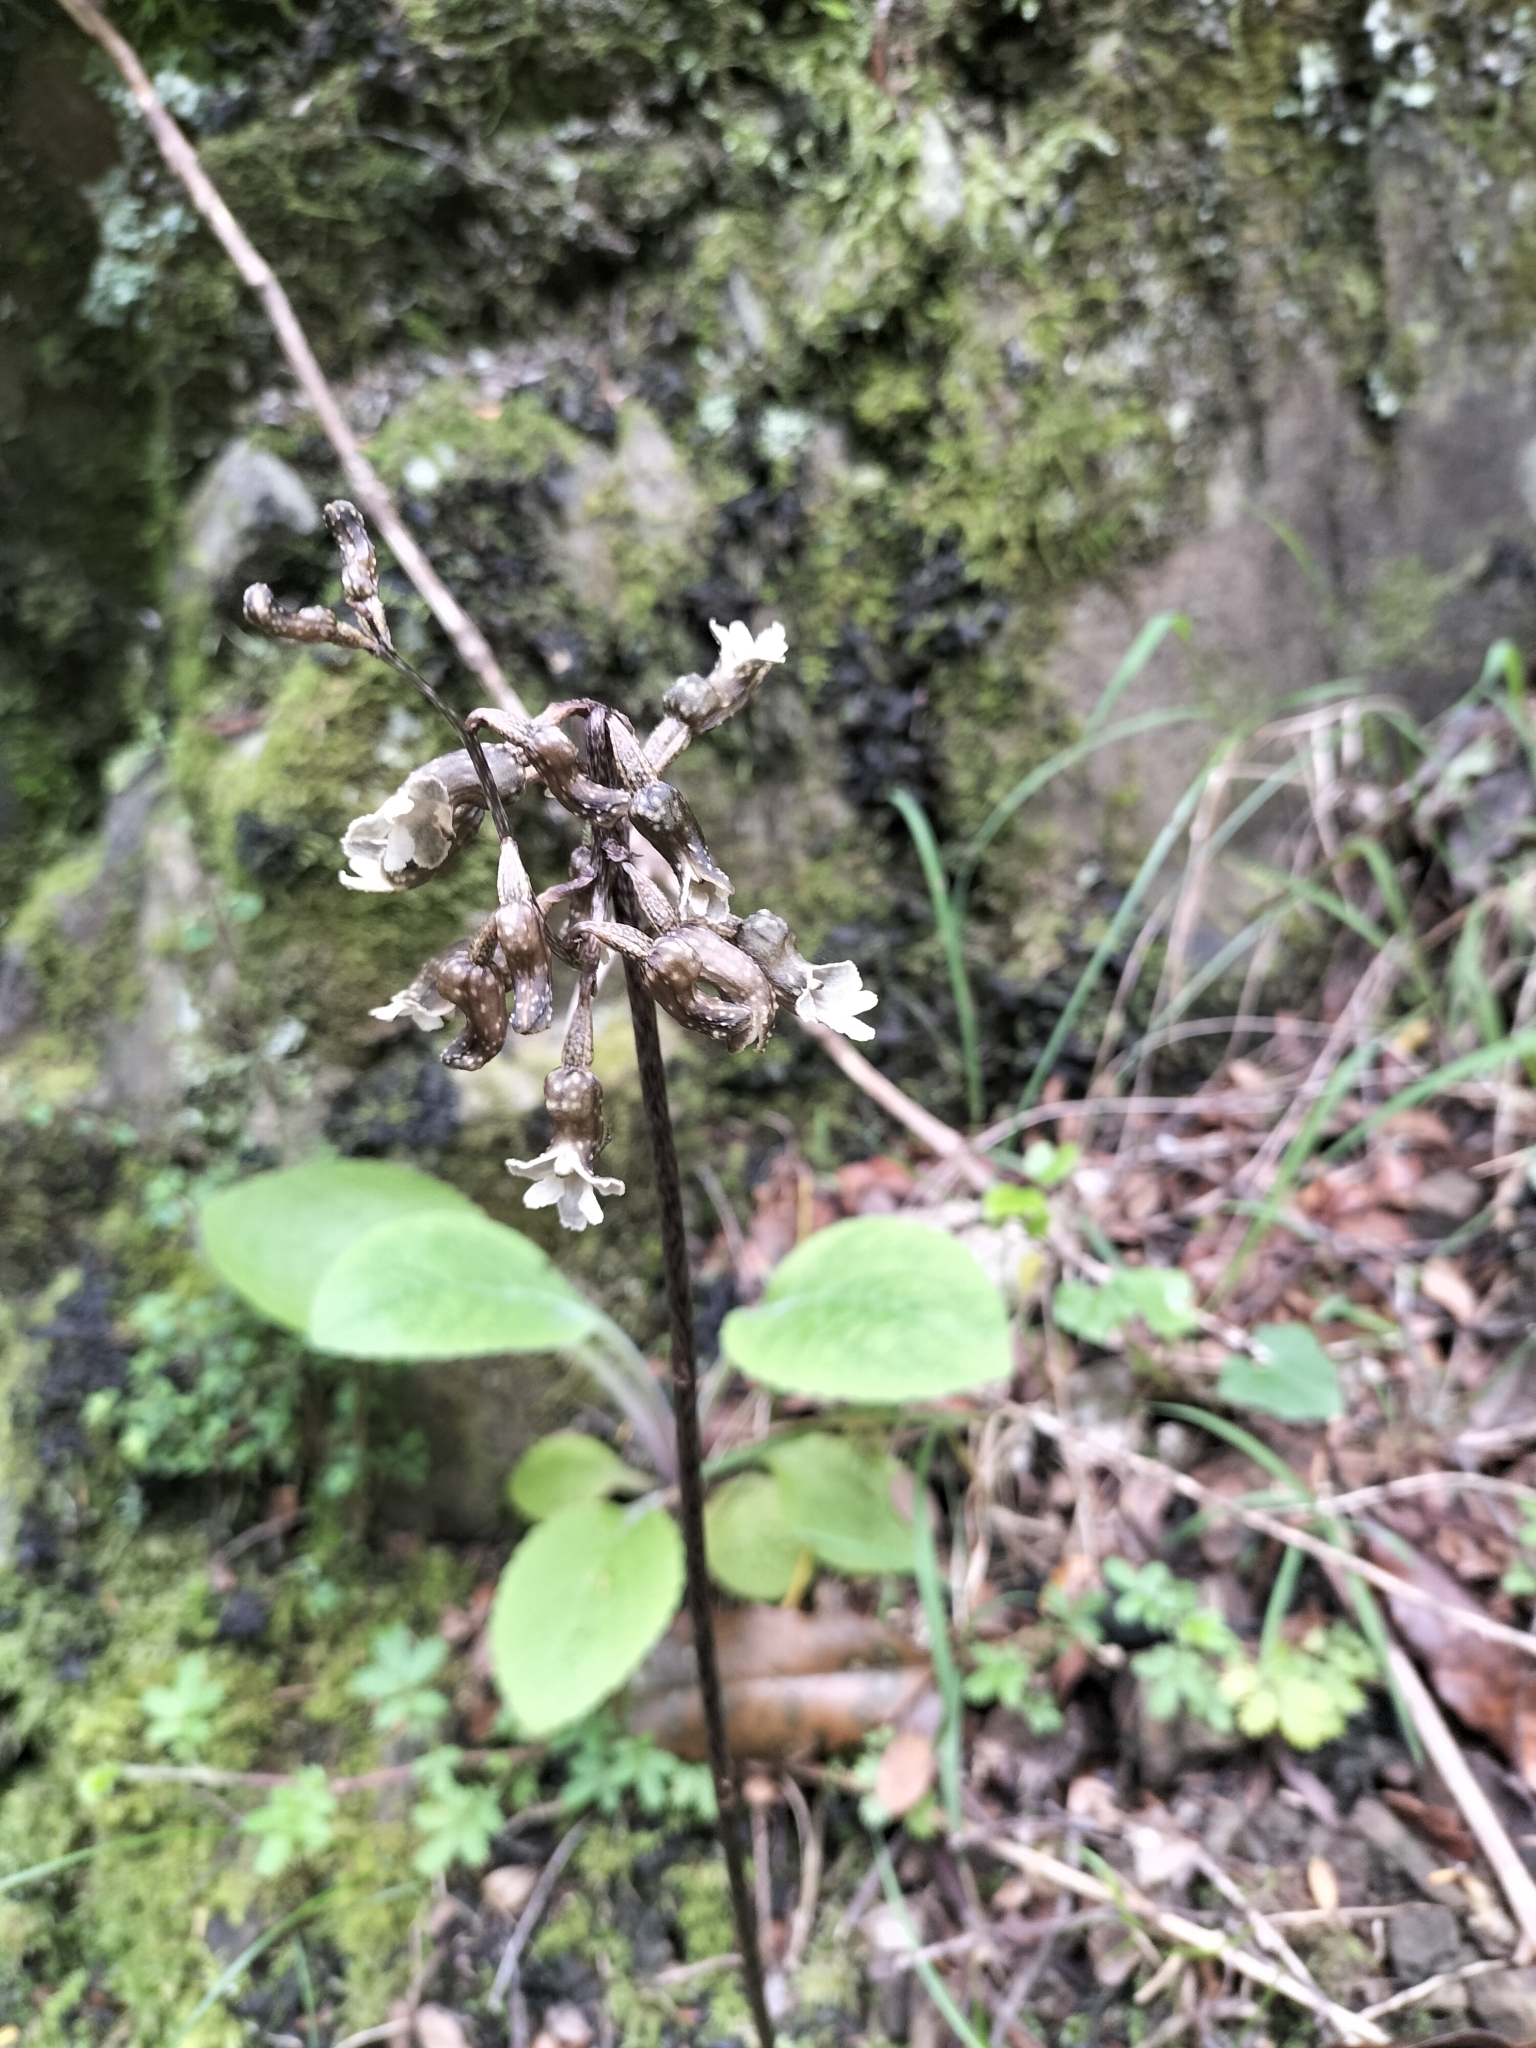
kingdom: Plantae
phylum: Tracheophyta
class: Liliopsida
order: Asparagales
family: Orchidaceae
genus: Gastrodia
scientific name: Gastrodia cunninghamii
